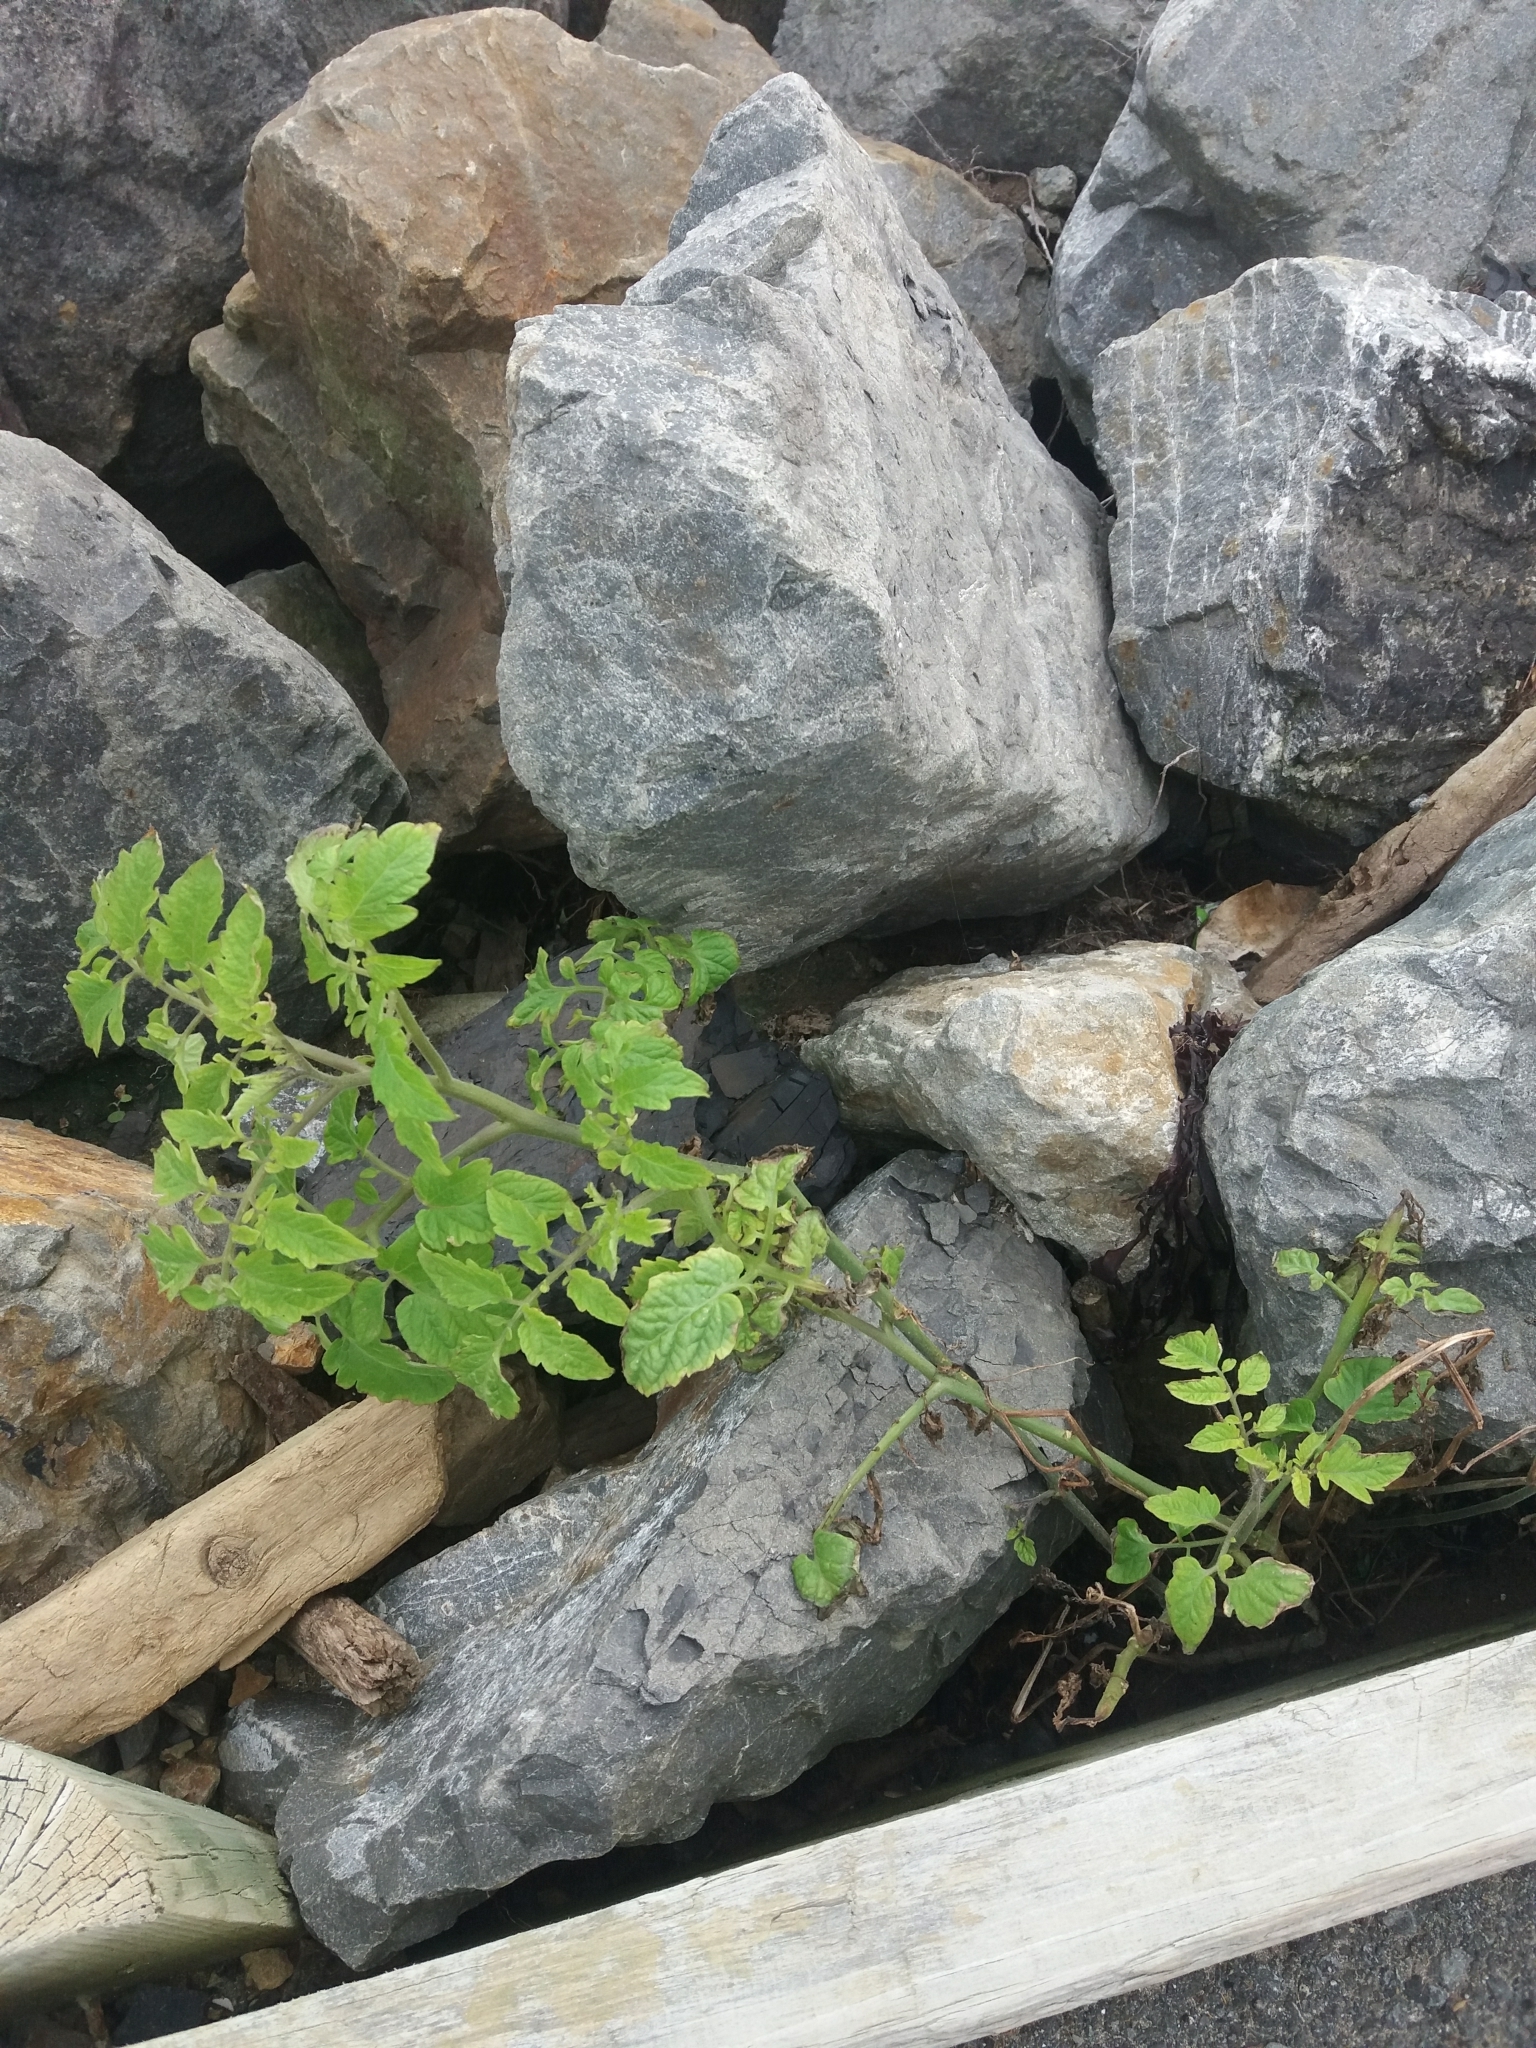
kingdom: Plantae
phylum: Tracheophyta
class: Magnoliopsida
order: Solanales
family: Solanaceae
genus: Solanum
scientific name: Solanum lycopersicum
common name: Garden tomato
